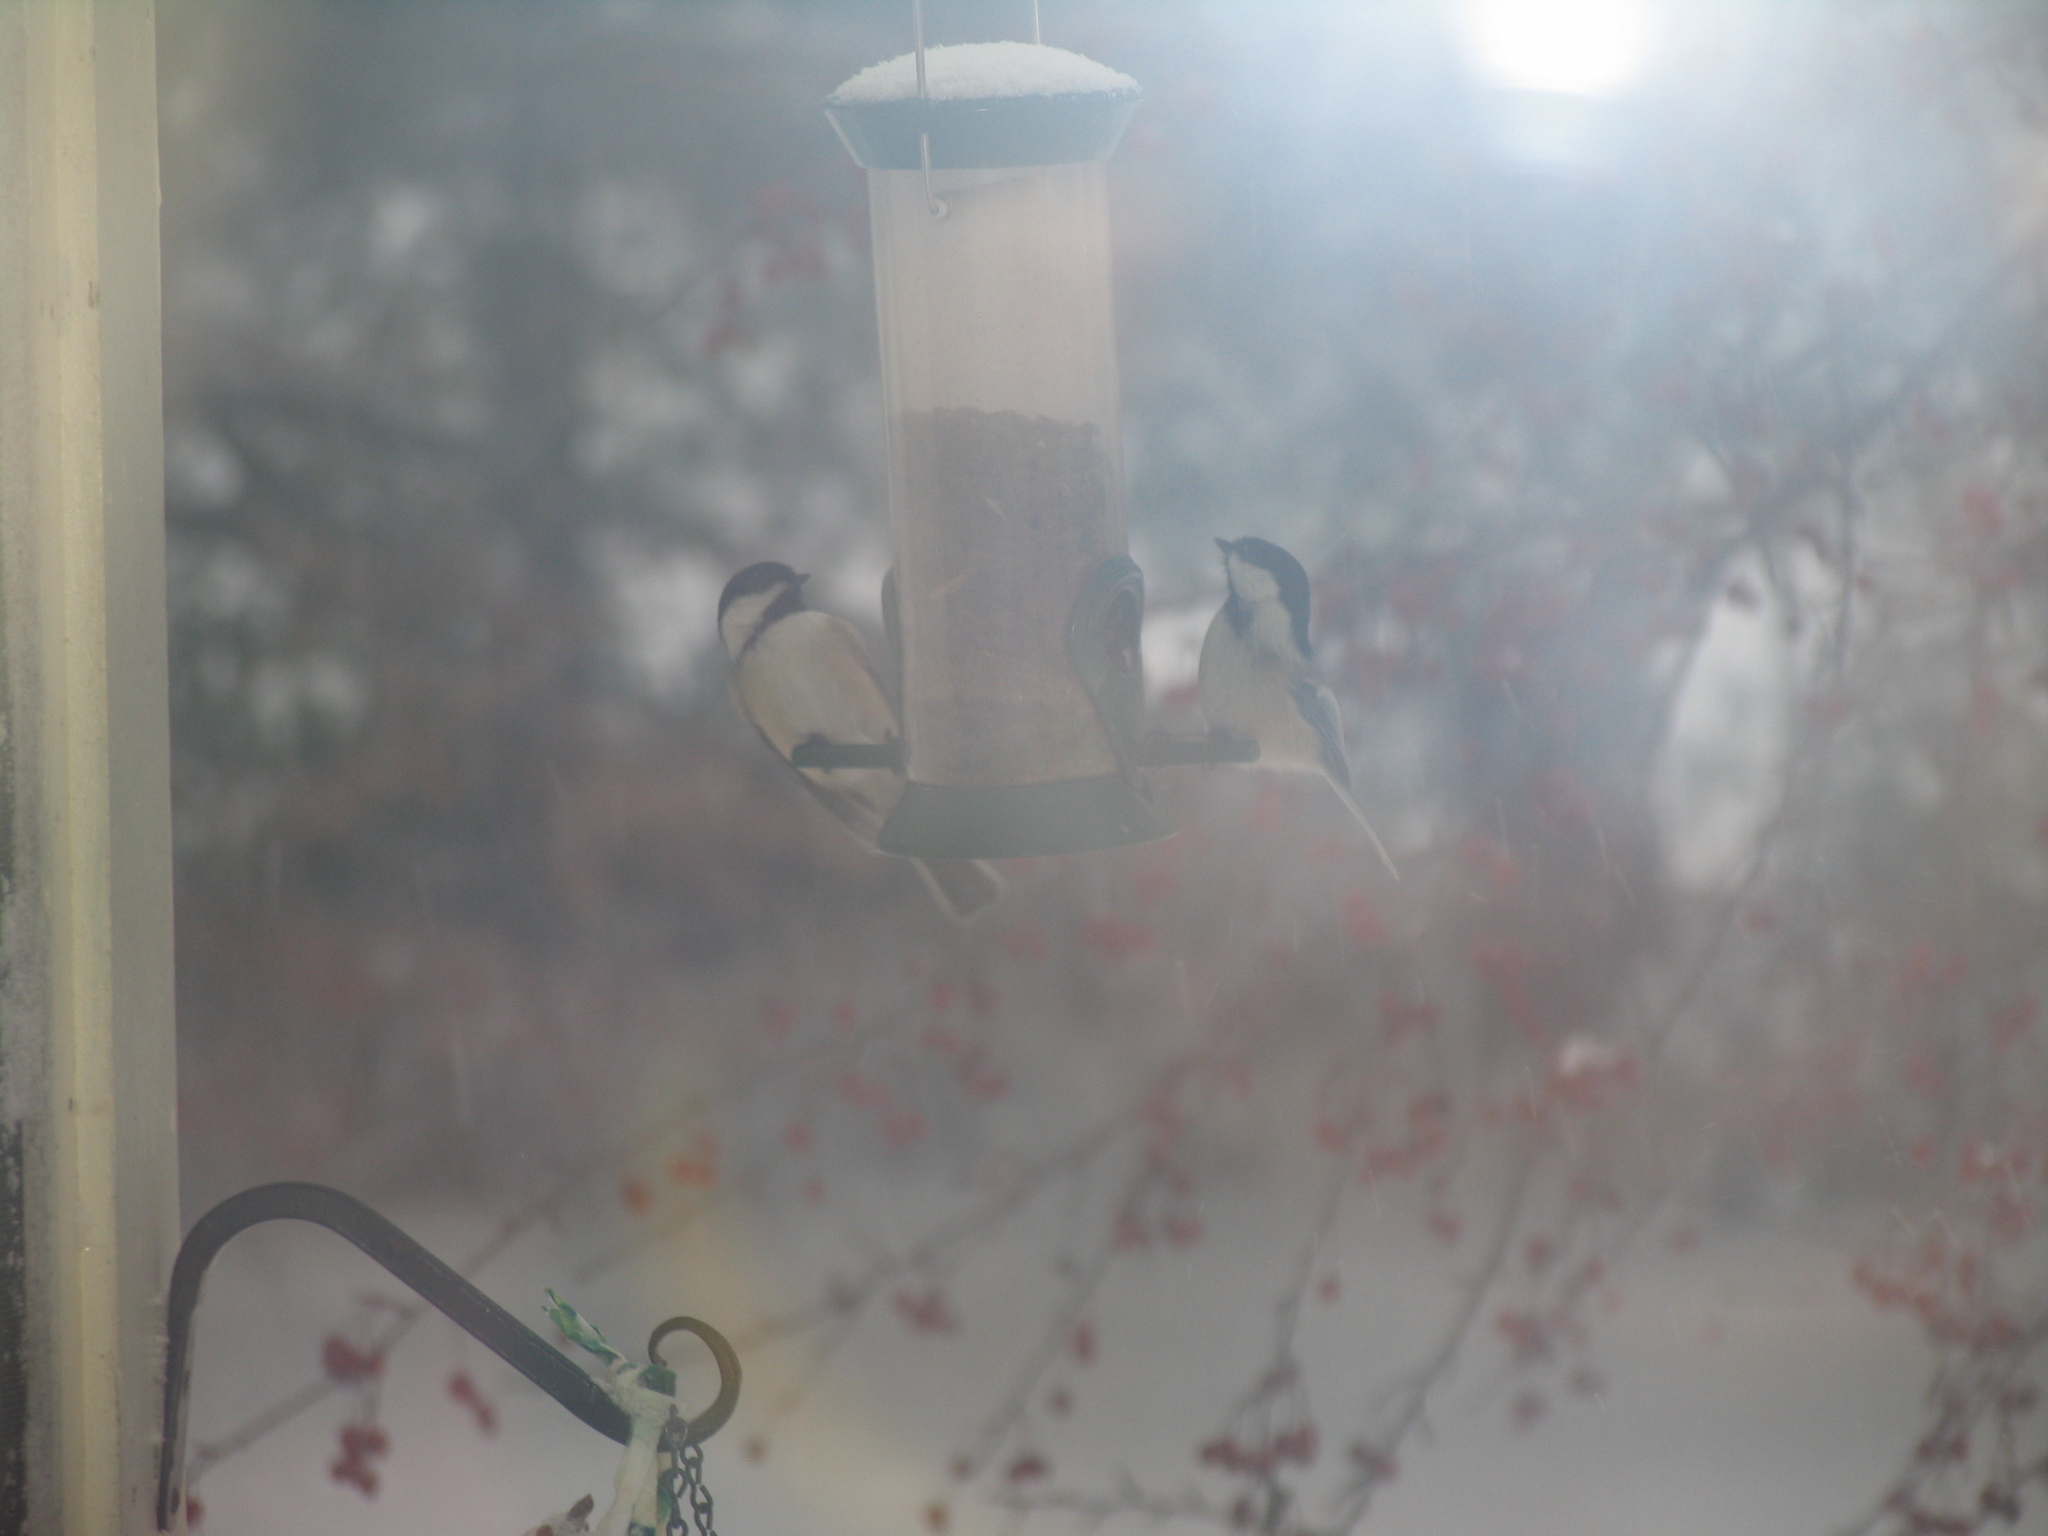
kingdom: Animalia
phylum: Chordata
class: Aves
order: Passeriformes
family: Paridae
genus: Poecile
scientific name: Poecile atricapillus
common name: Black-capped chickadee
